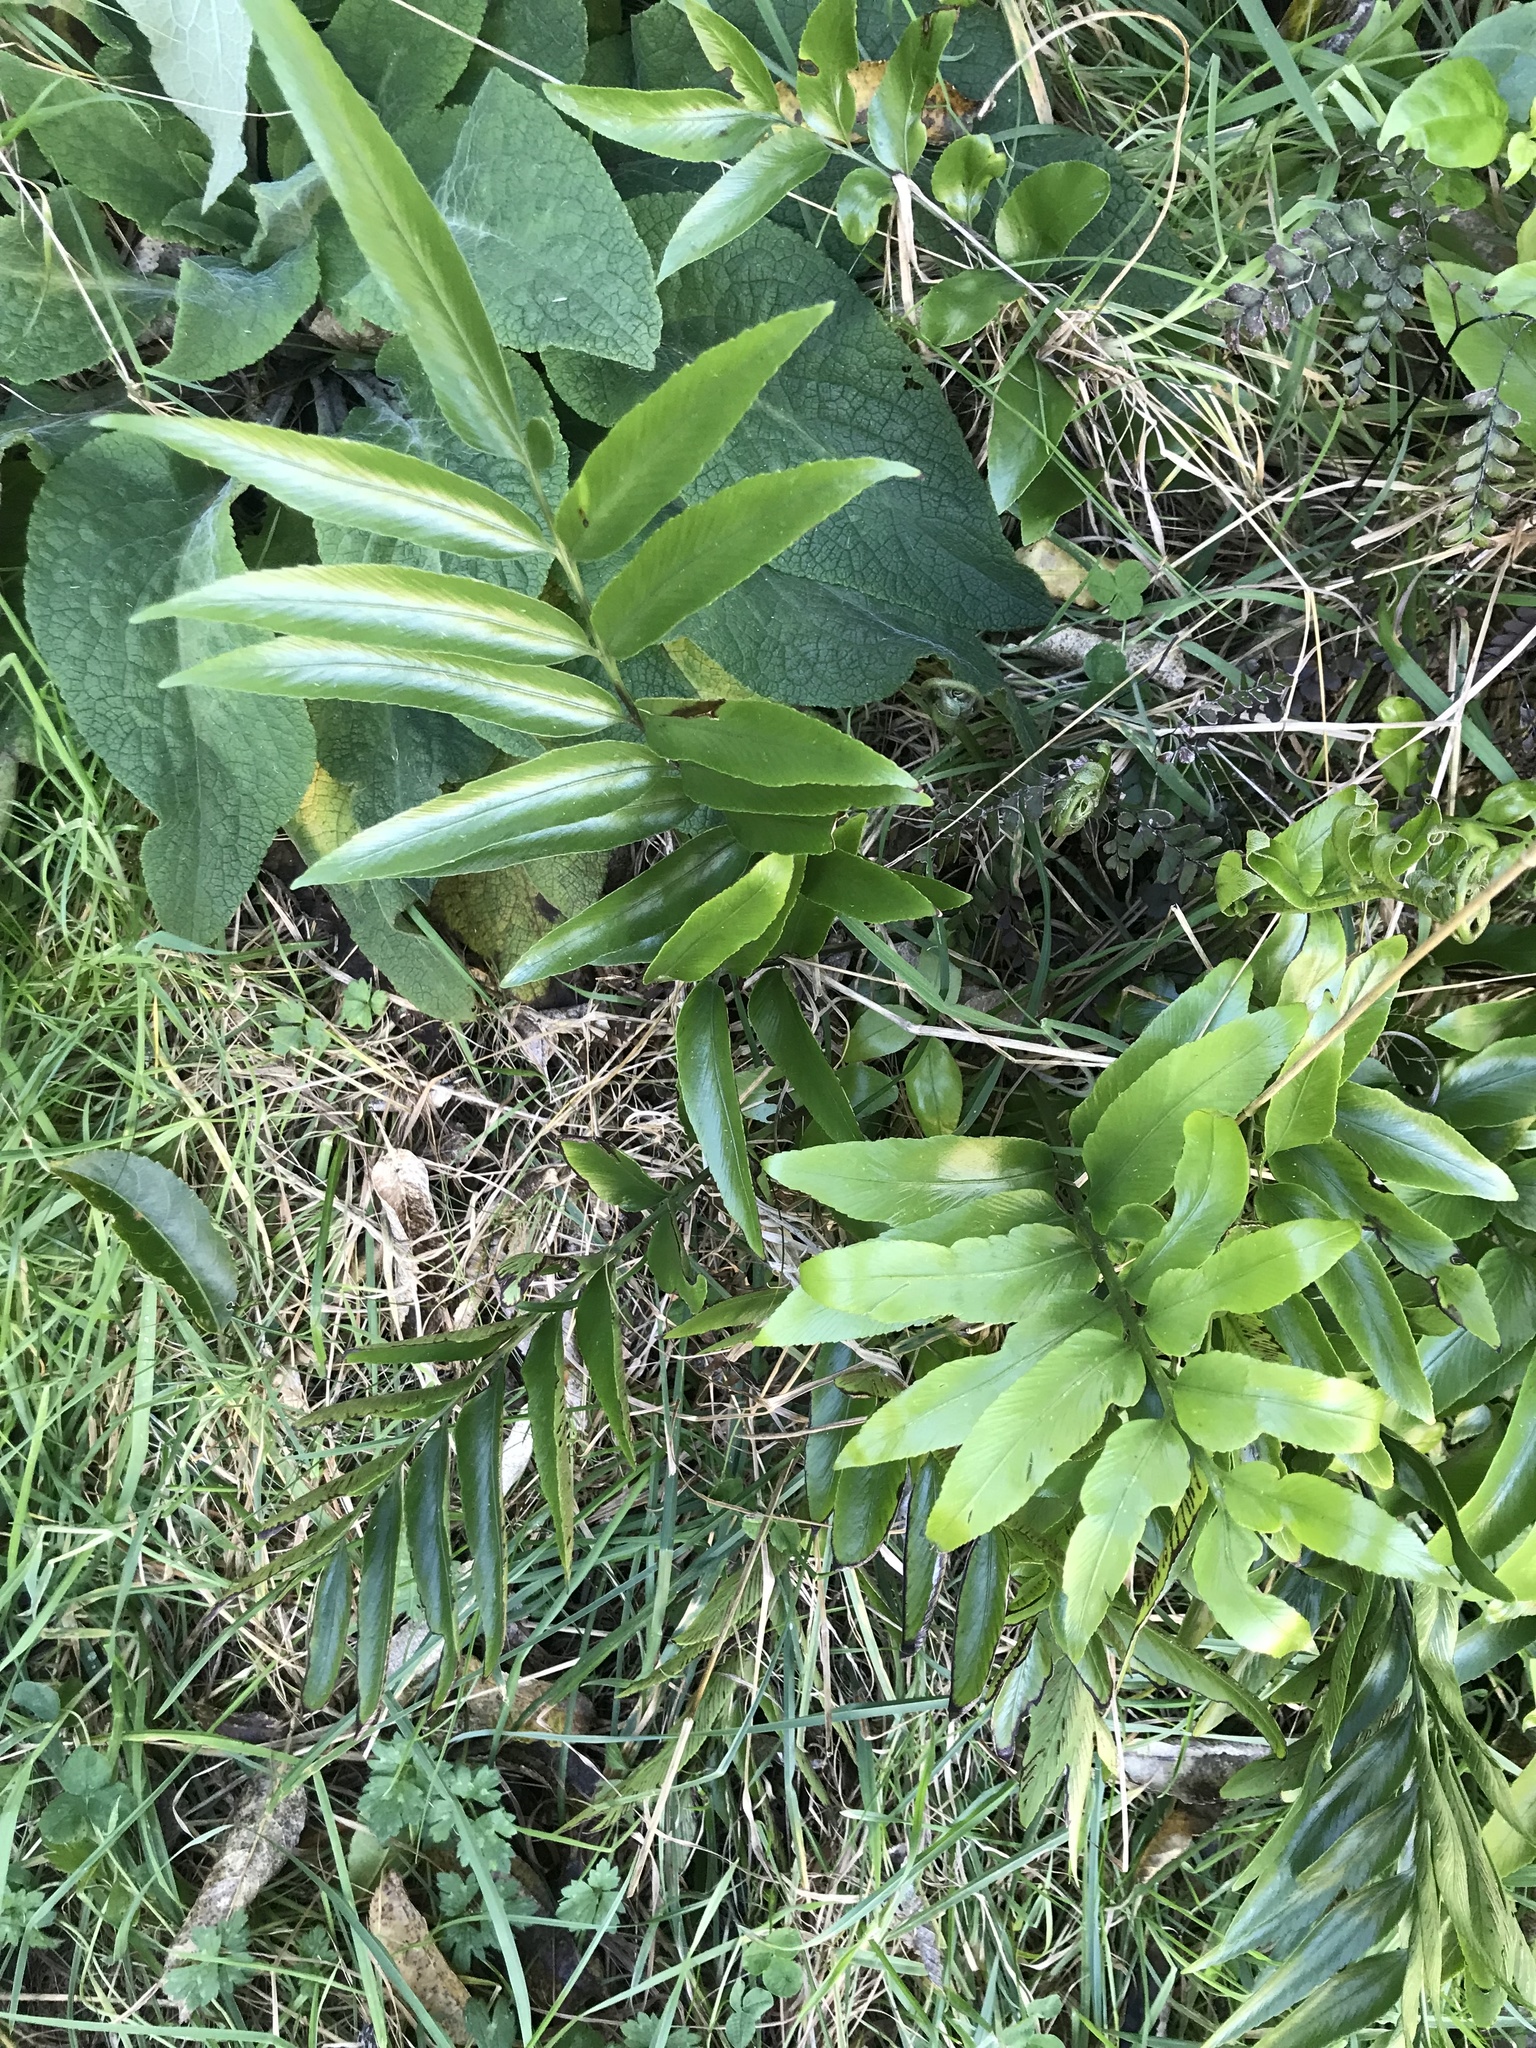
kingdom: Plantae
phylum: Tracheophyta
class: Polypodiopsida
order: Polypodiales
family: Aspleniaceae
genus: Asplenium
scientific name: Asplenium oblongifolium
